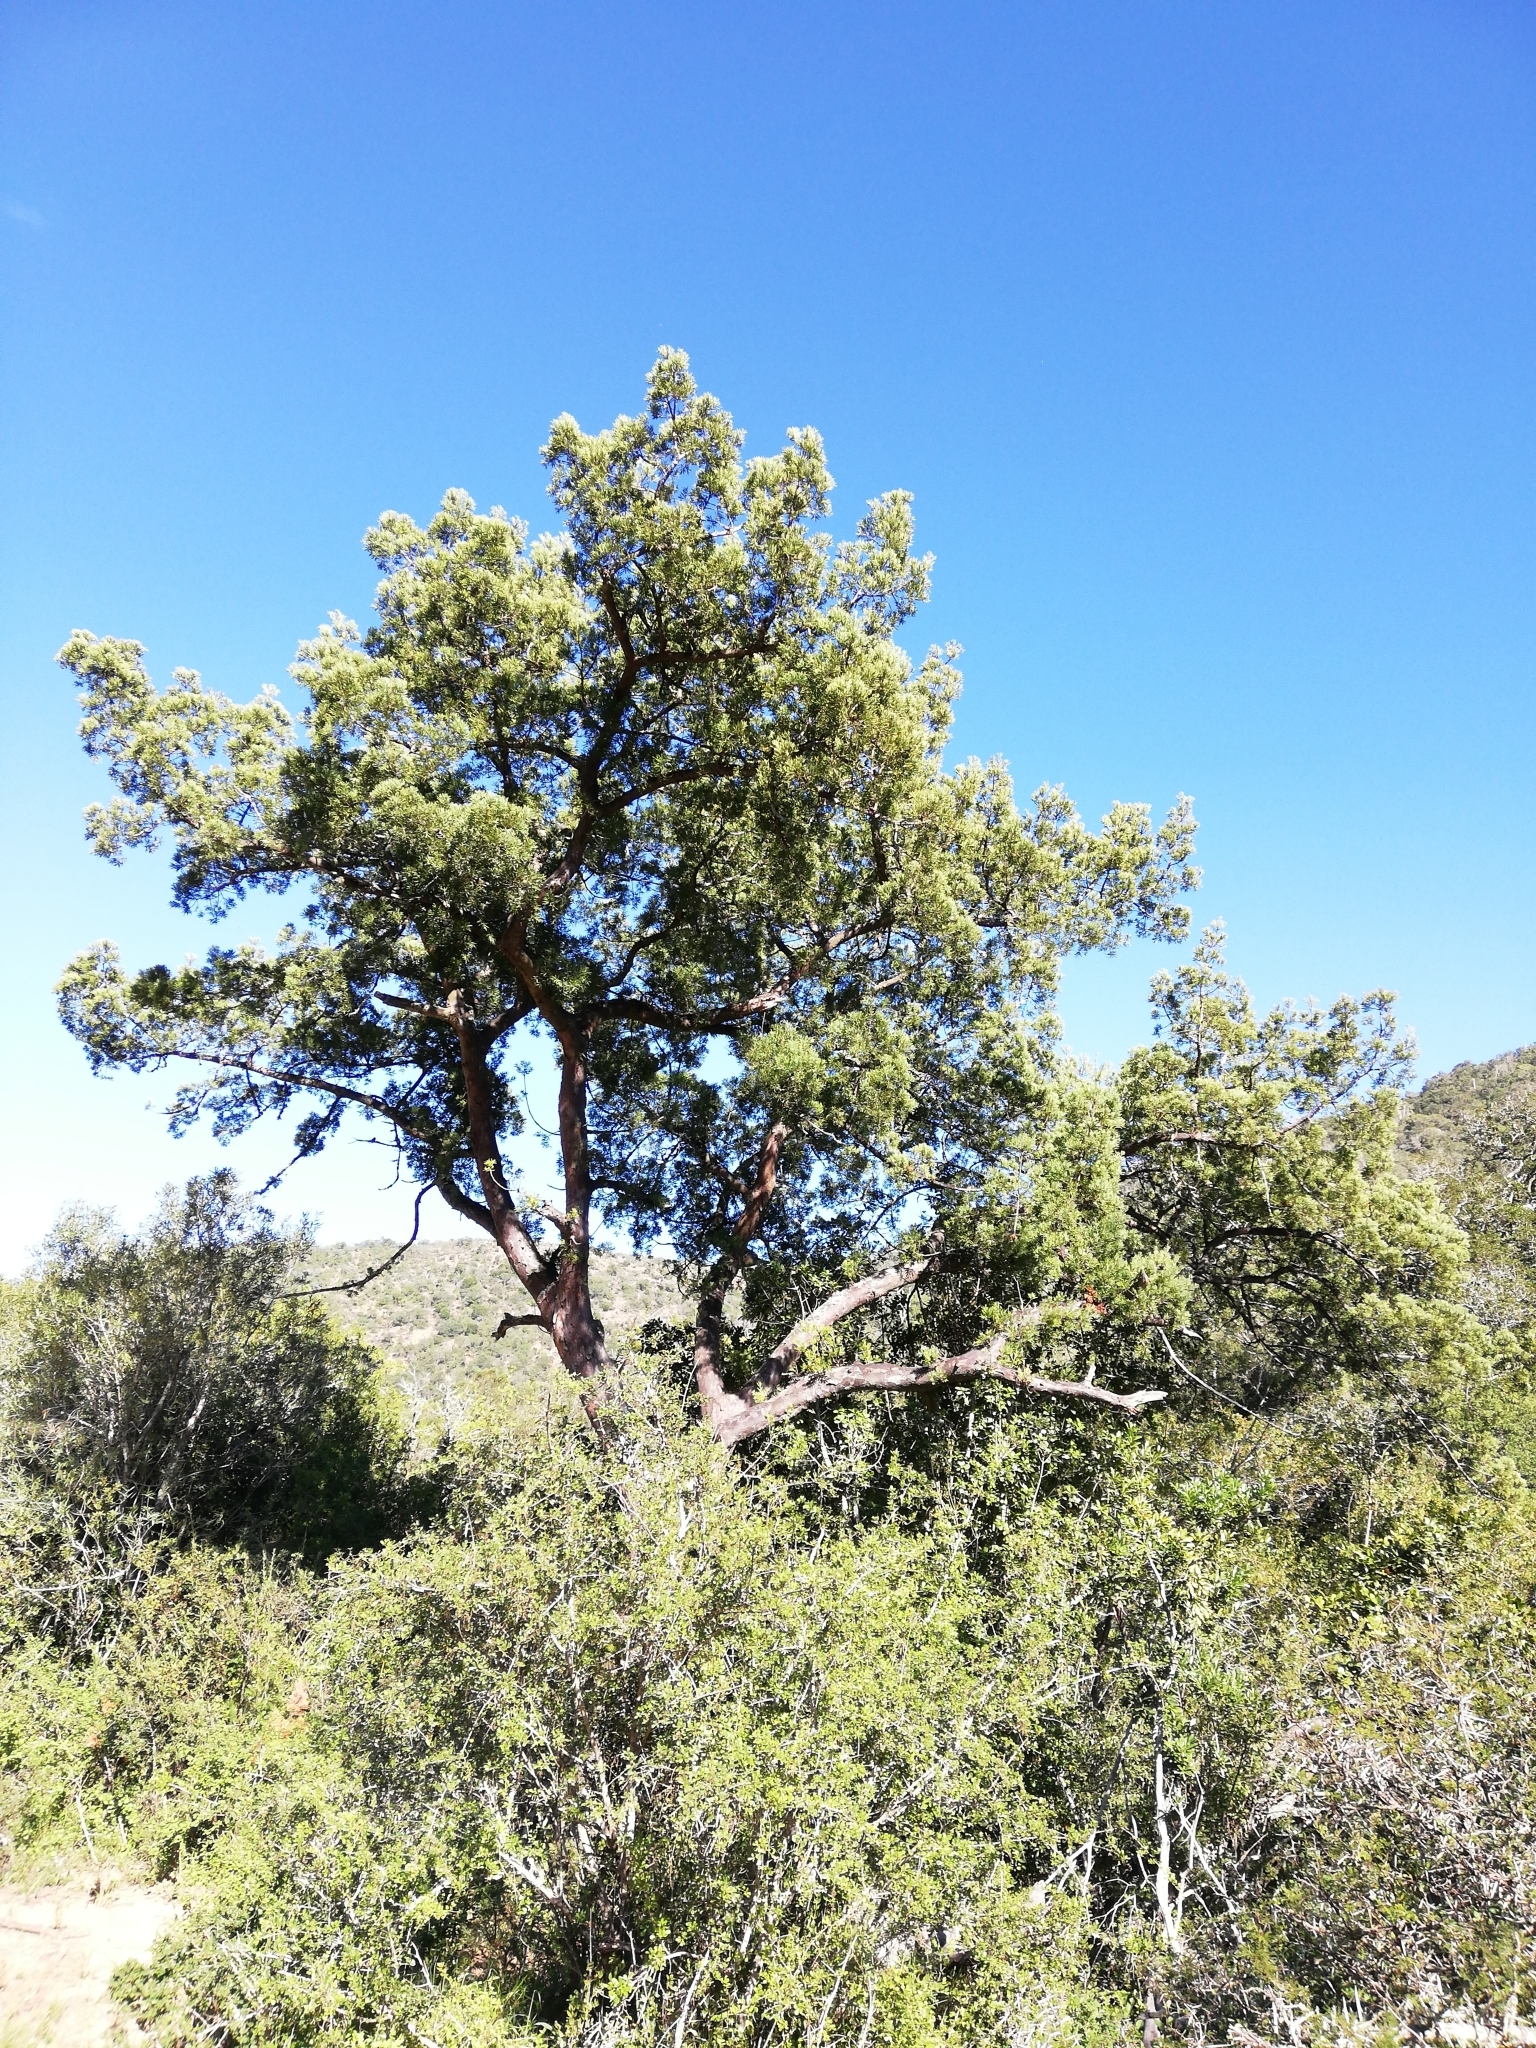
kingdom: Plantae
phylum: Tracheophyta
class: Pinopsida
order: Pinales
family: Podocarpaceae
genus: Afrocarpus
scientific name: Afrocarpus falcatus
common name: Bastard yellowwood
